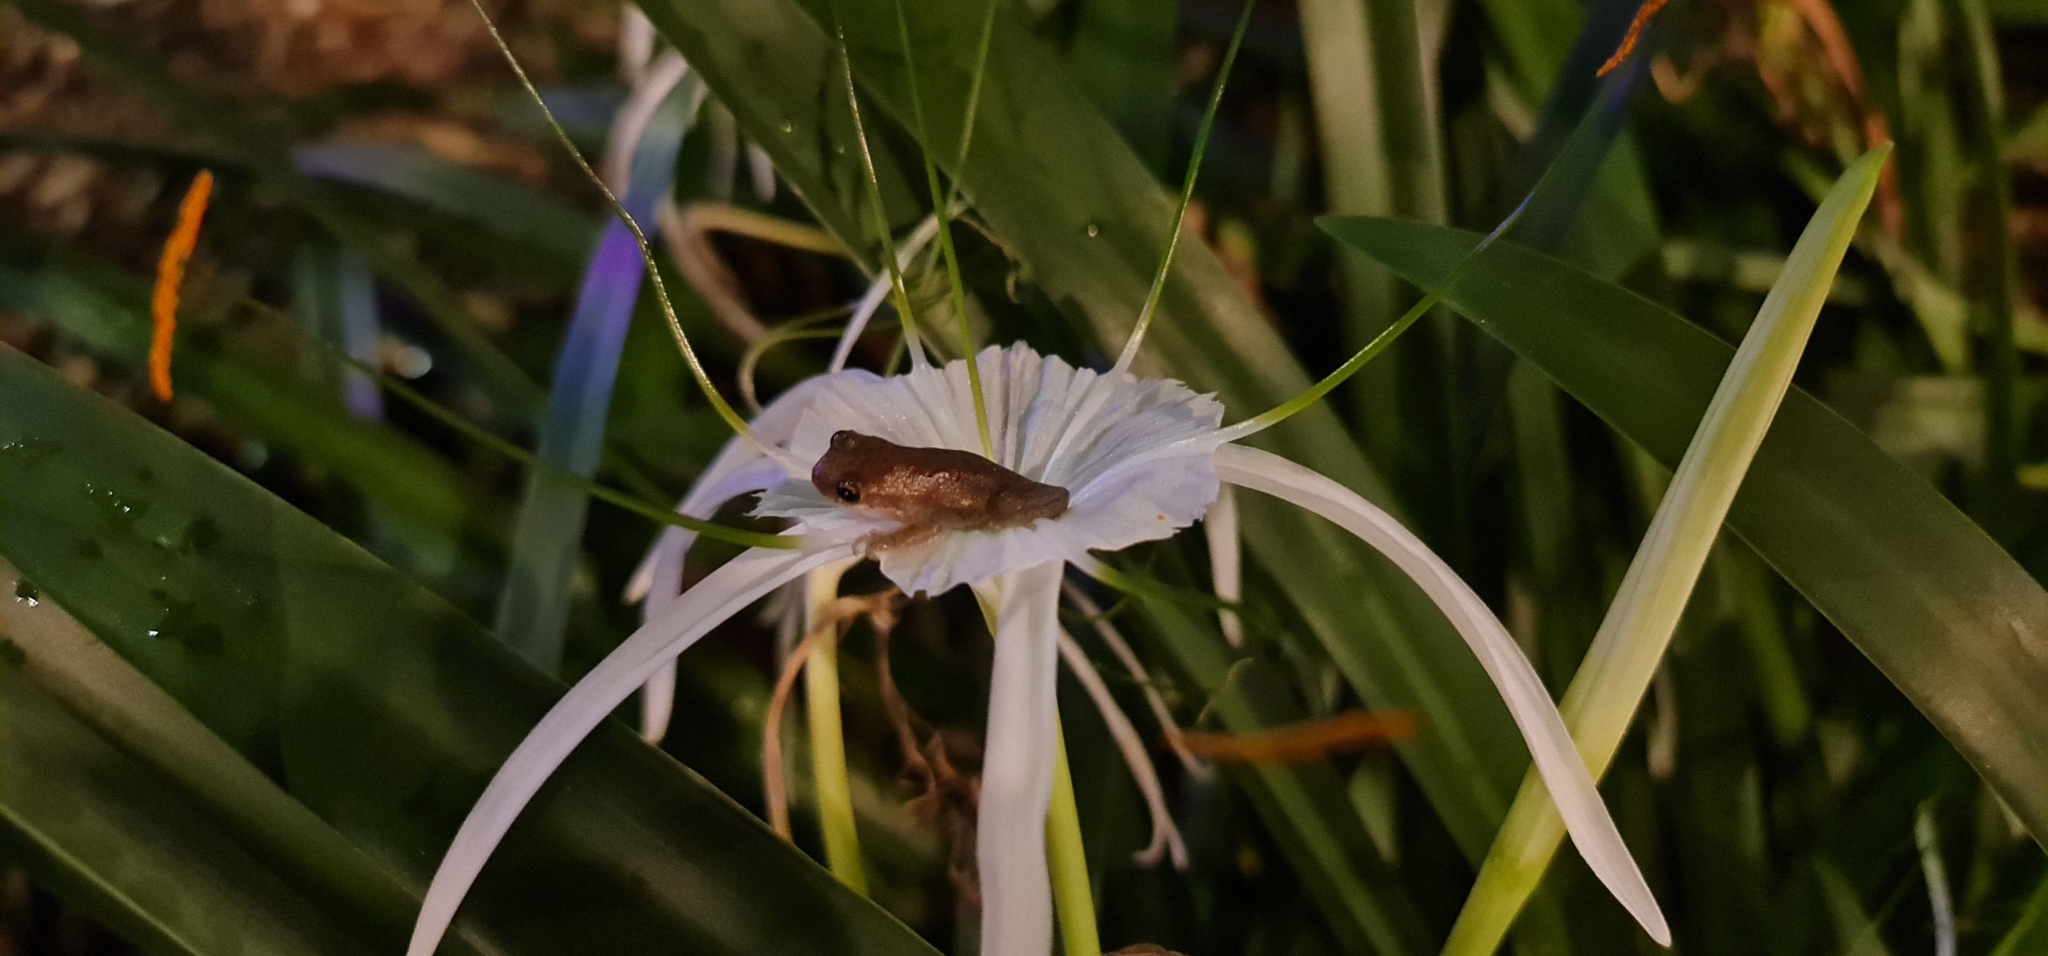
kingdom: Animalia
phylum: Chordata
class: Amphibia
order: Anura
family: Pelodryadidae
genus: Litoria
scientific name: Litoria rubella
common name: Desert tree frog
